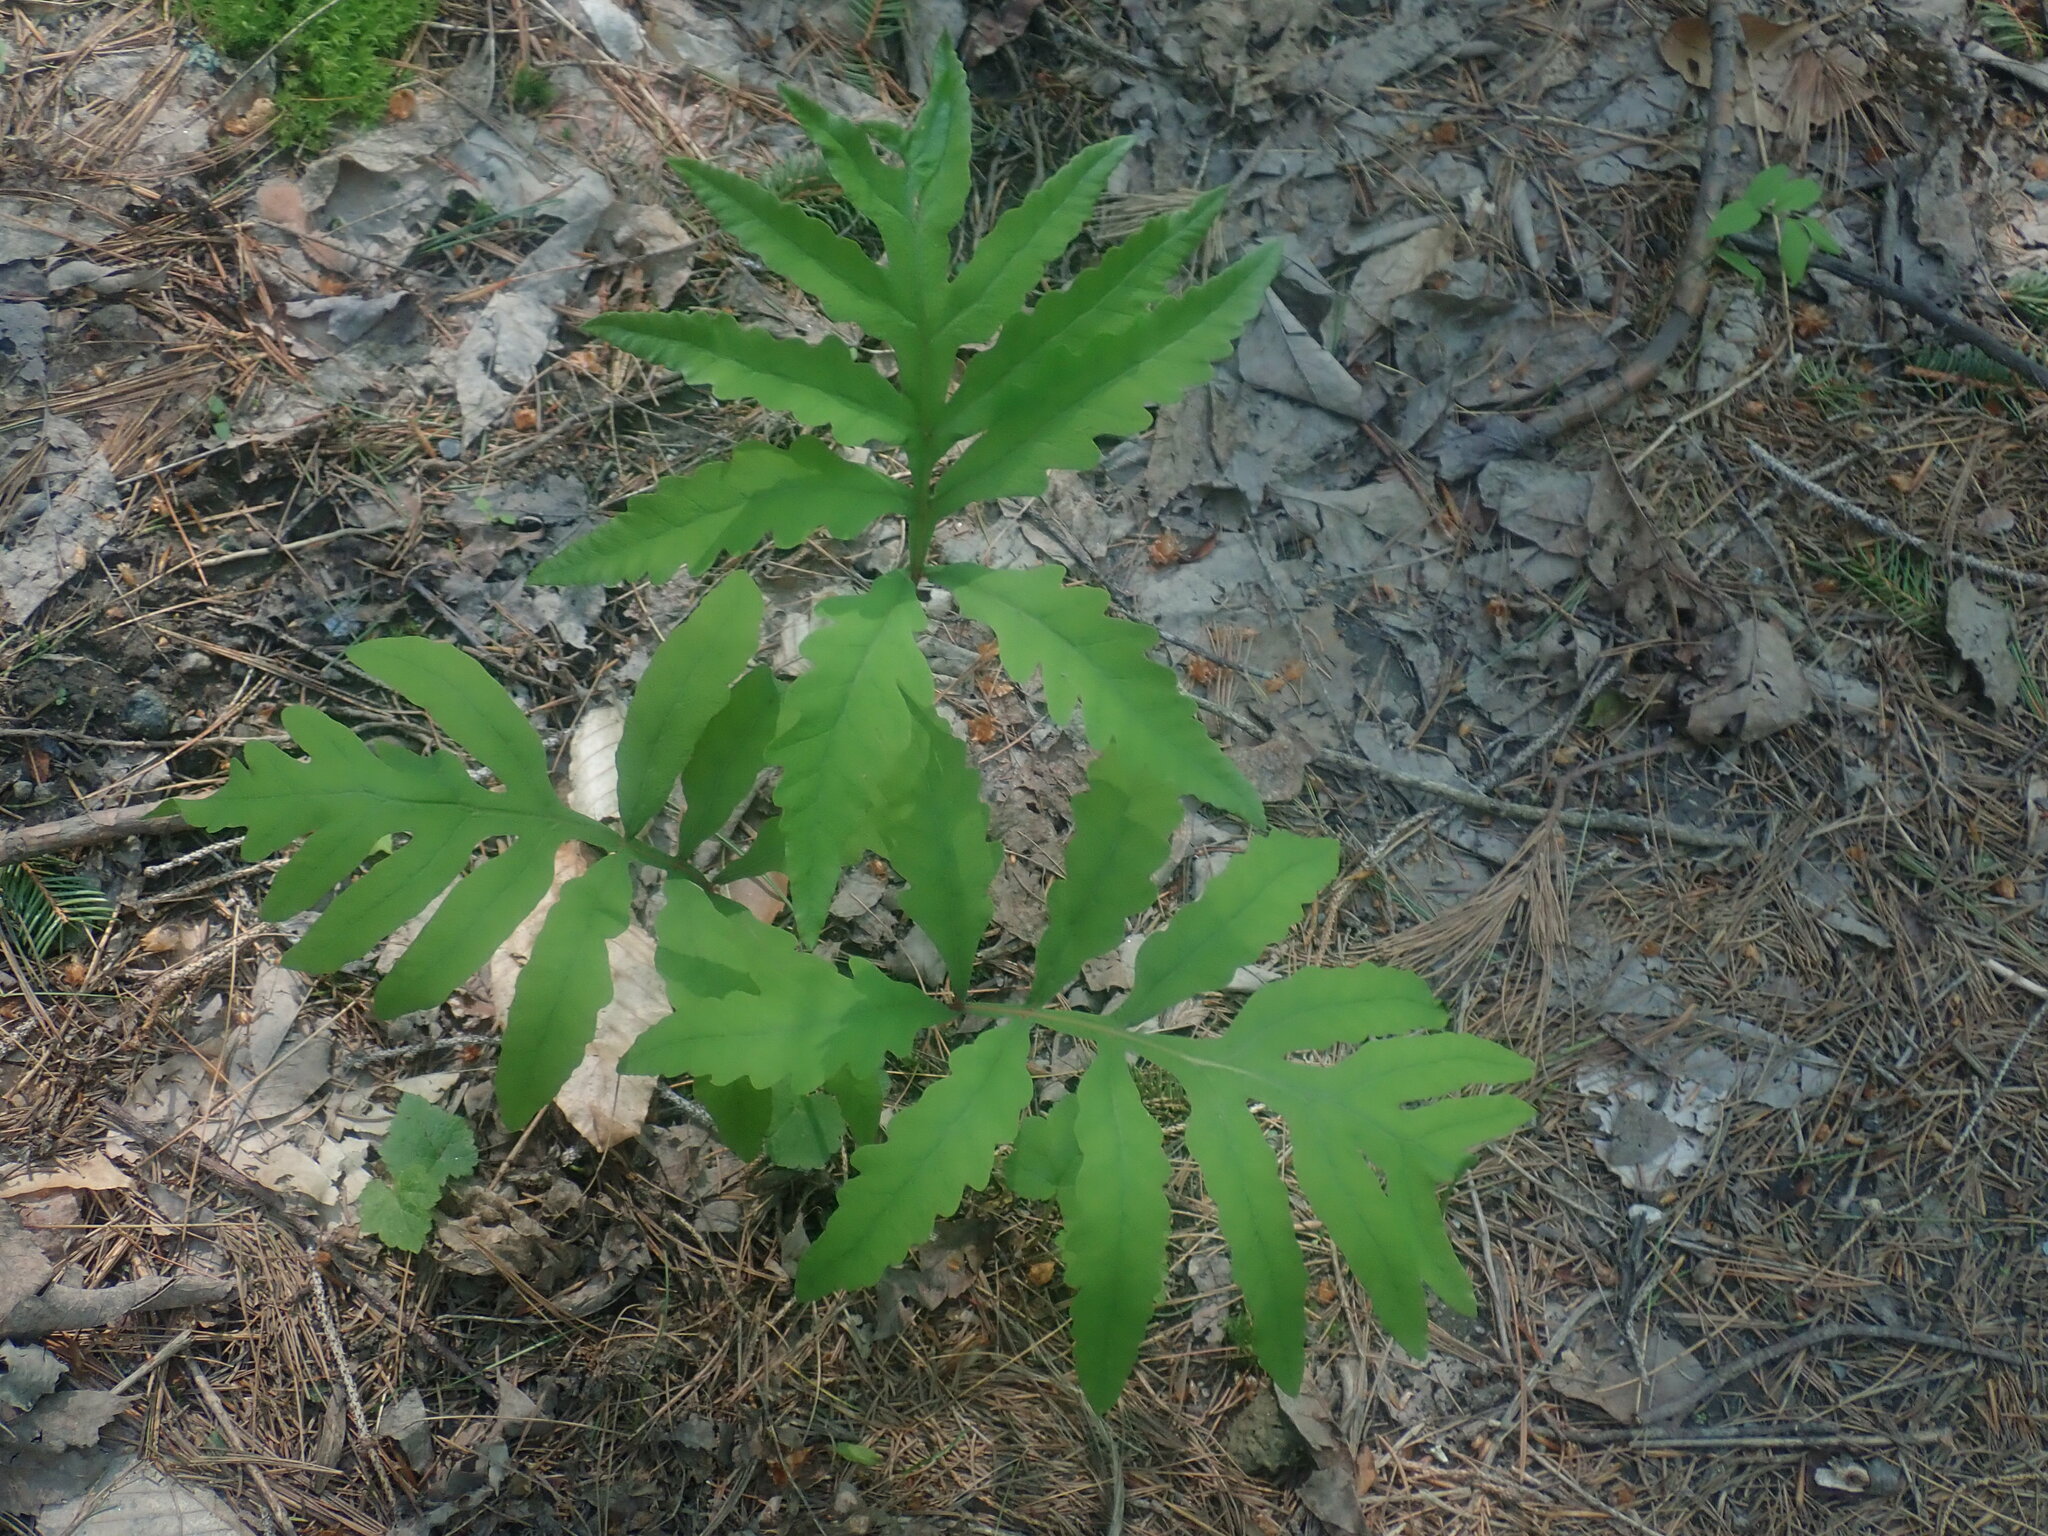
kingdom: Plantae
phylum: Tracheophyta
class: Polypodiopsida
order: Polypodiales
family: Onocleaceae
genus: Onoclea
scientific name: Onoclea sensibilis
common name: Sensitive fern
